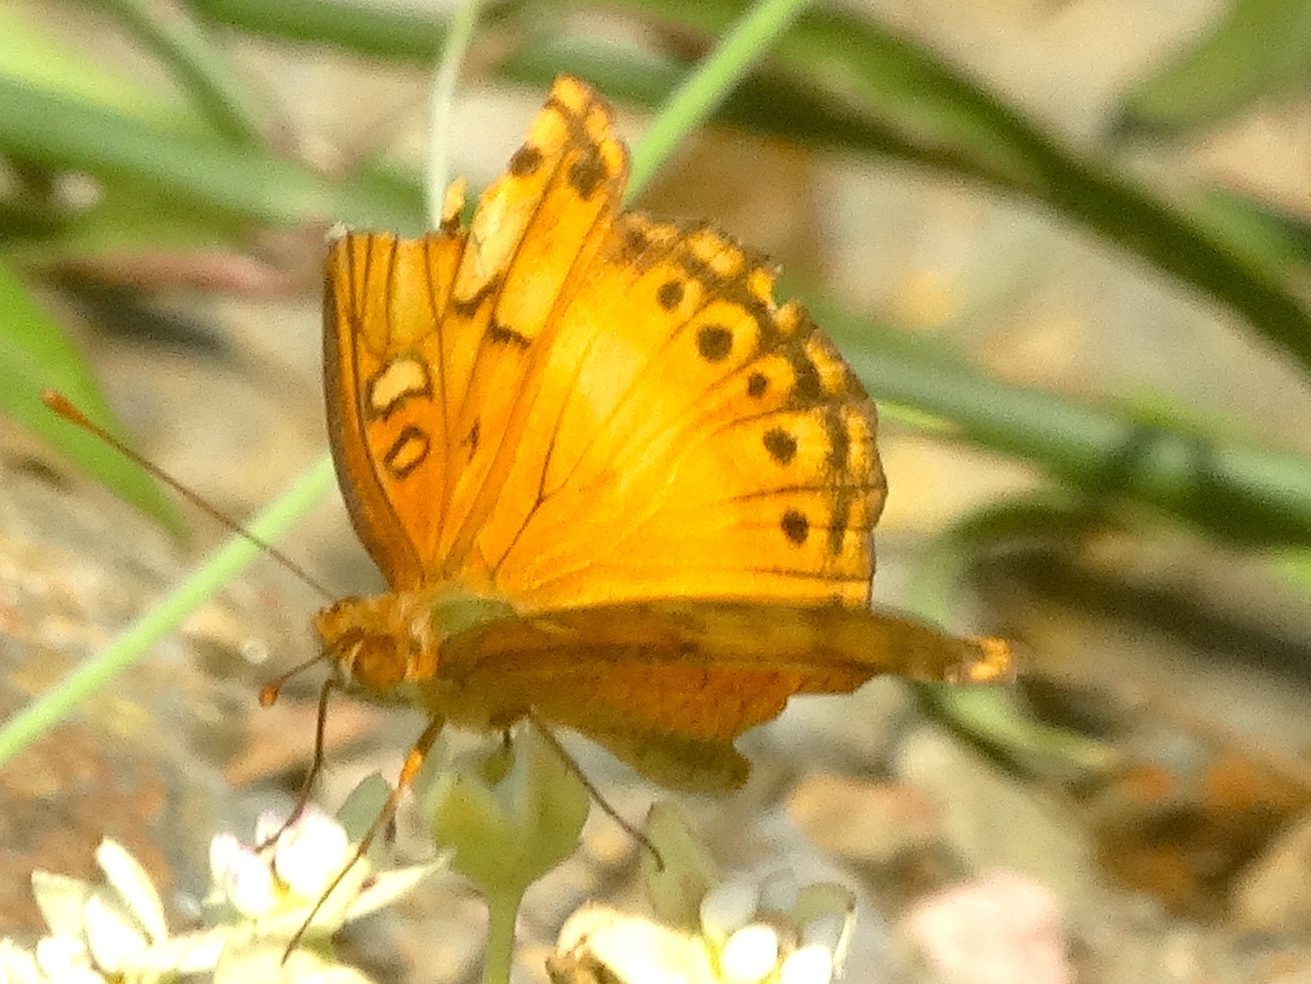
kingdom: Animalia
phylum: Arthropoda
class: Insecta
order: Lepidoptera
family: Nymphalidae
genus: Euptoieta
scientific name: Euptoieta hegesia
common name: Mexican fritillary
